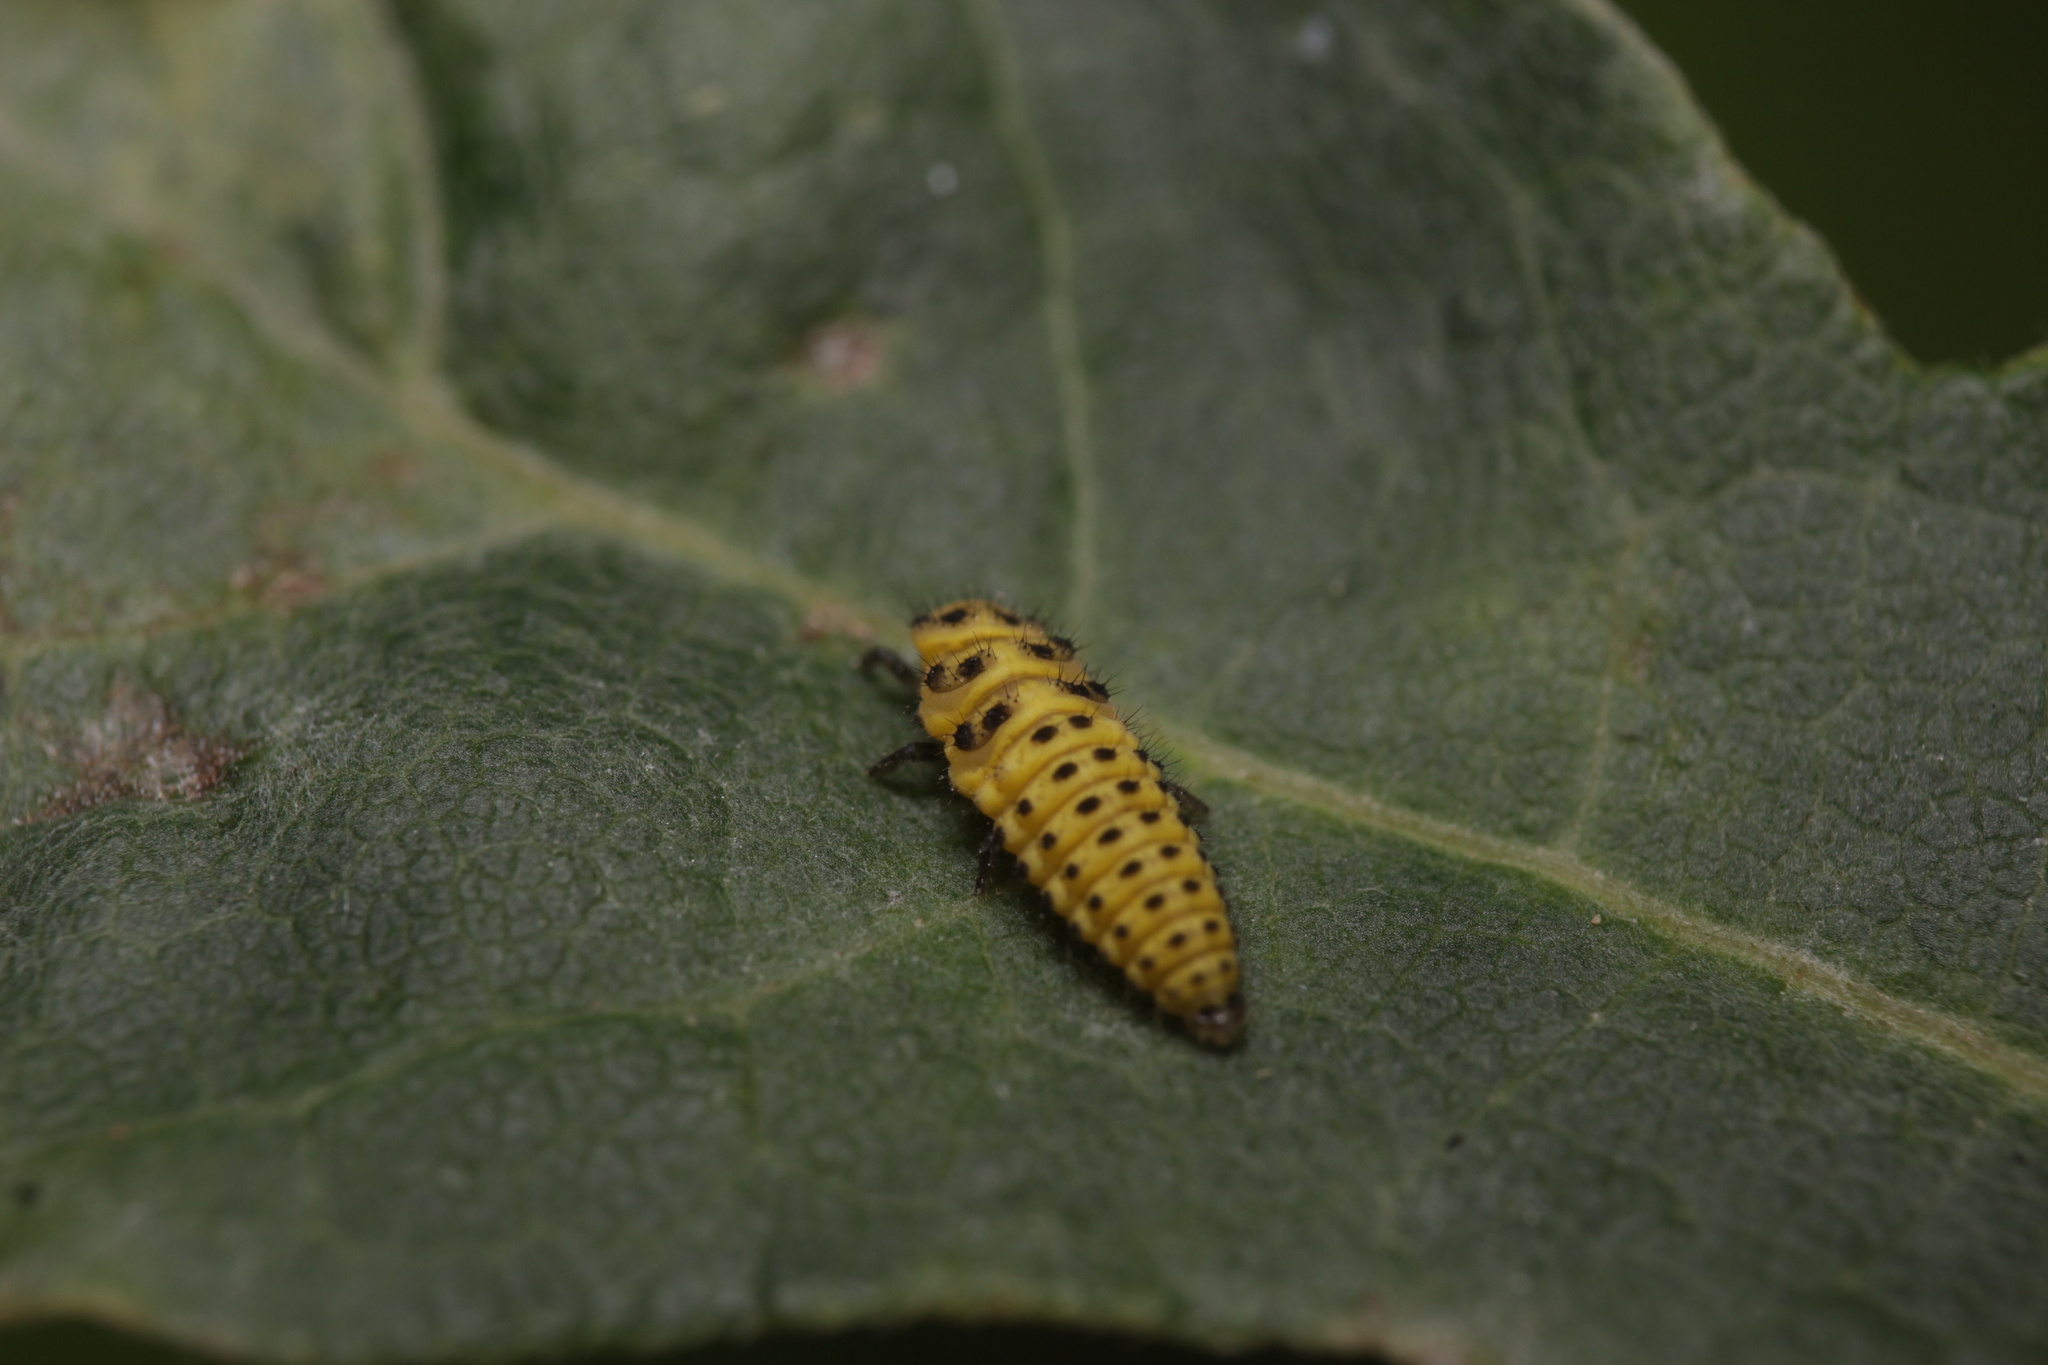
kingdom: Animalia
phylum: Arthropoda
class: Insecta
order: Coleoptera
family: Coccinellidae
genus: Psyllobora
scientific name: Psyllobora vigintiduopunctata
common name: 22-spot ladybird
